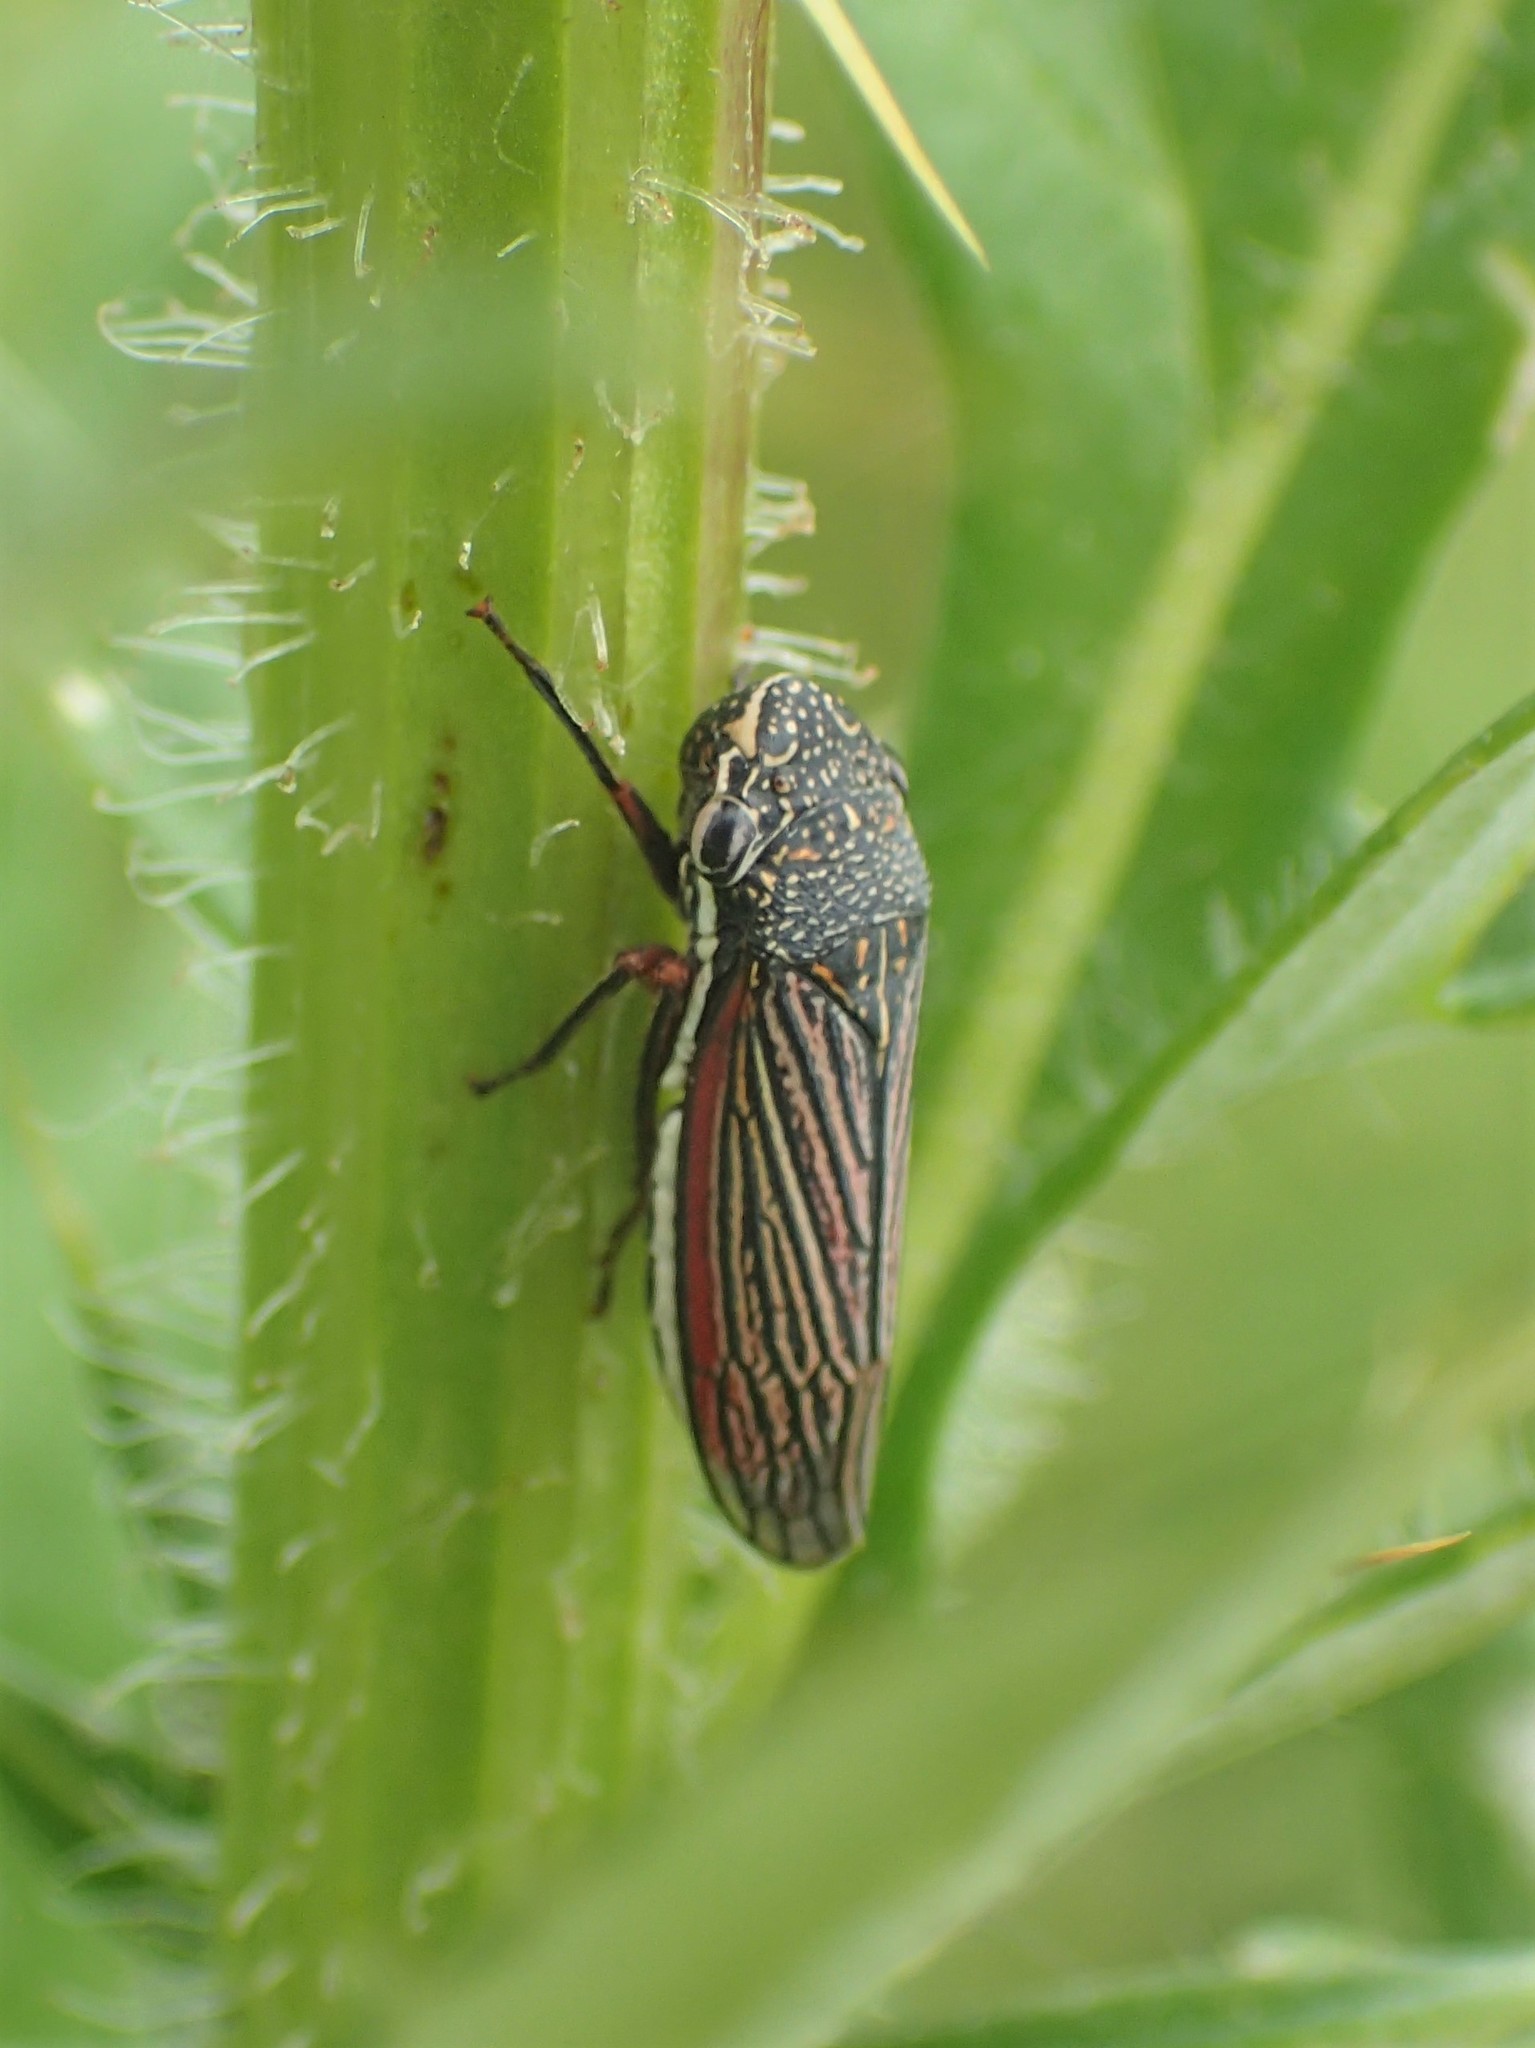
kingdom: Animalia
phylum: Arthropoda
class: Insecta
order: Hemiptera
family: Cicadellidae
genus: Cuerna
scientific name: Cuerna costalis
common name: Lateral-lined sharpshooter
